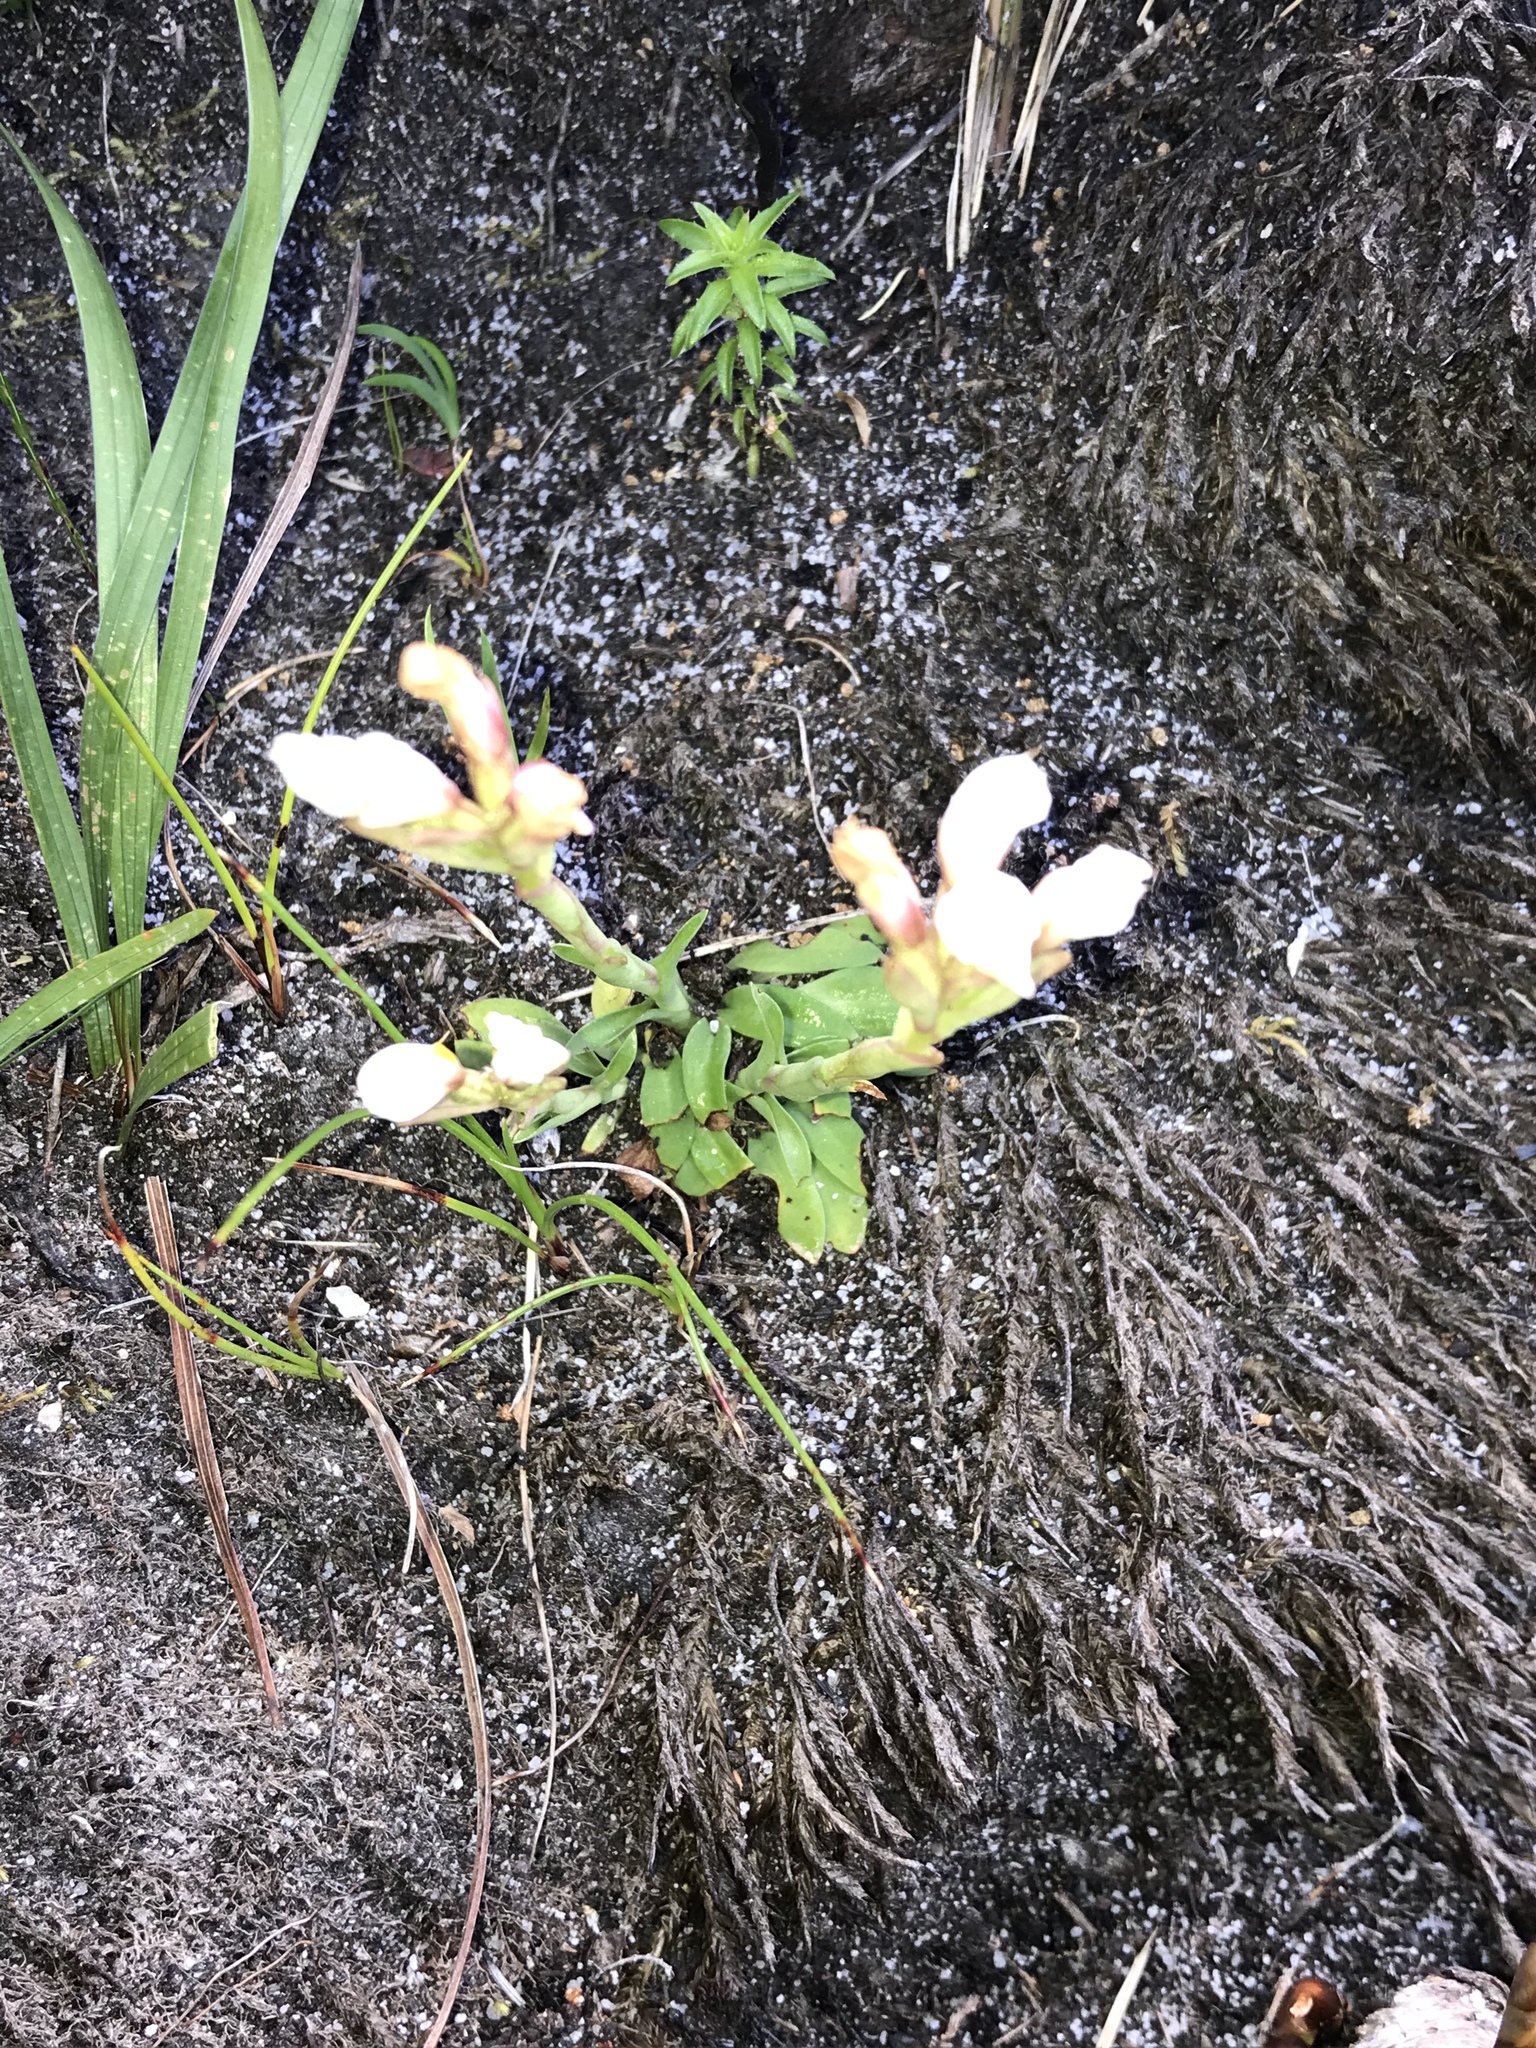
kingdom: Plantae
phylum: Tracheophyta
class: Liliopsida
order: Asparagales
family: Orchidaceae
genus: Disa
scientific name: Disa richardiana
